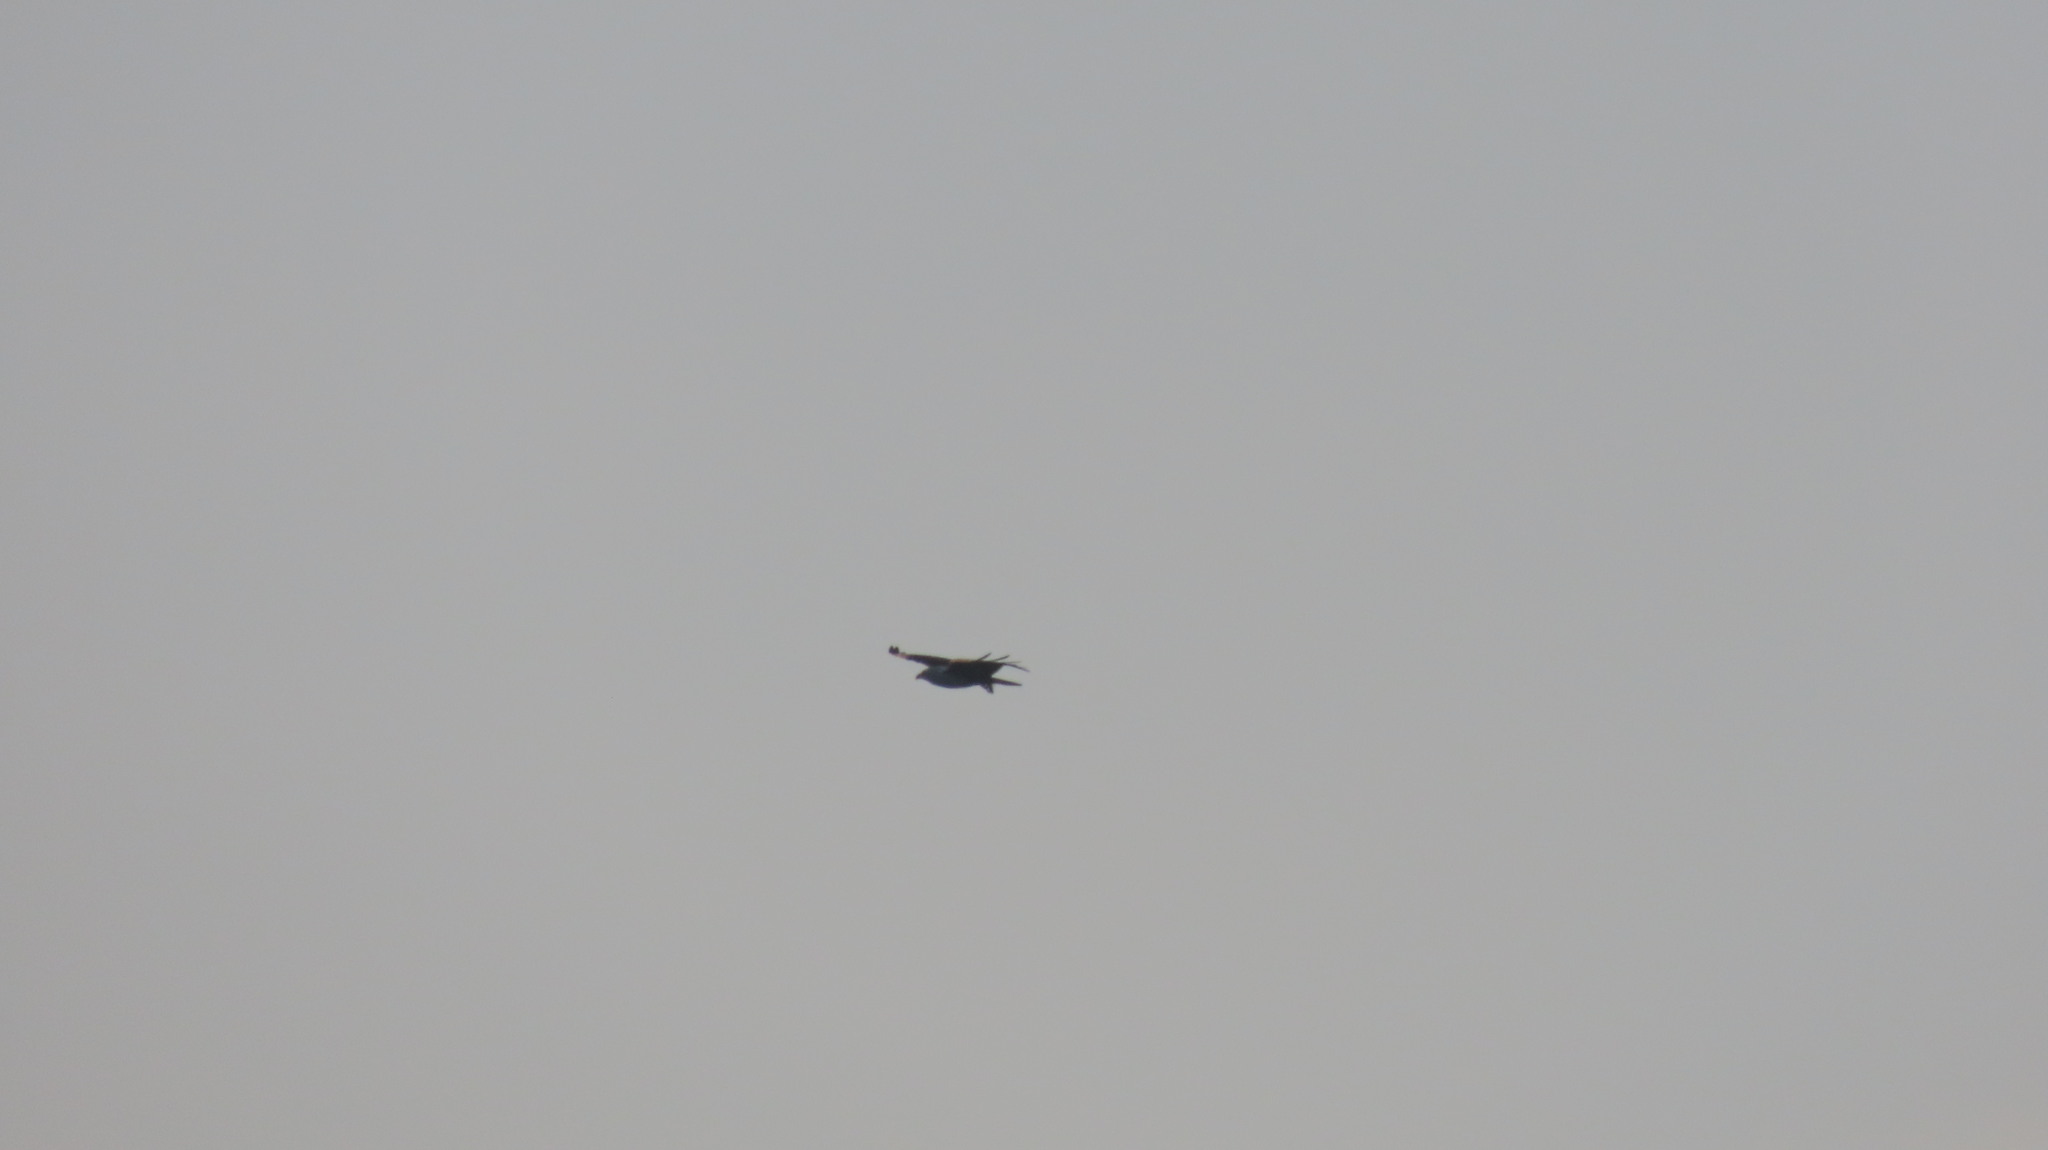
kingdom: Animalia
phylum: Chordata
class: Aves
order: Accipitriformes
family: Accipitridae
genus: Haliastur
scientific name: Haliastur indus
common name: Brahminy kite
